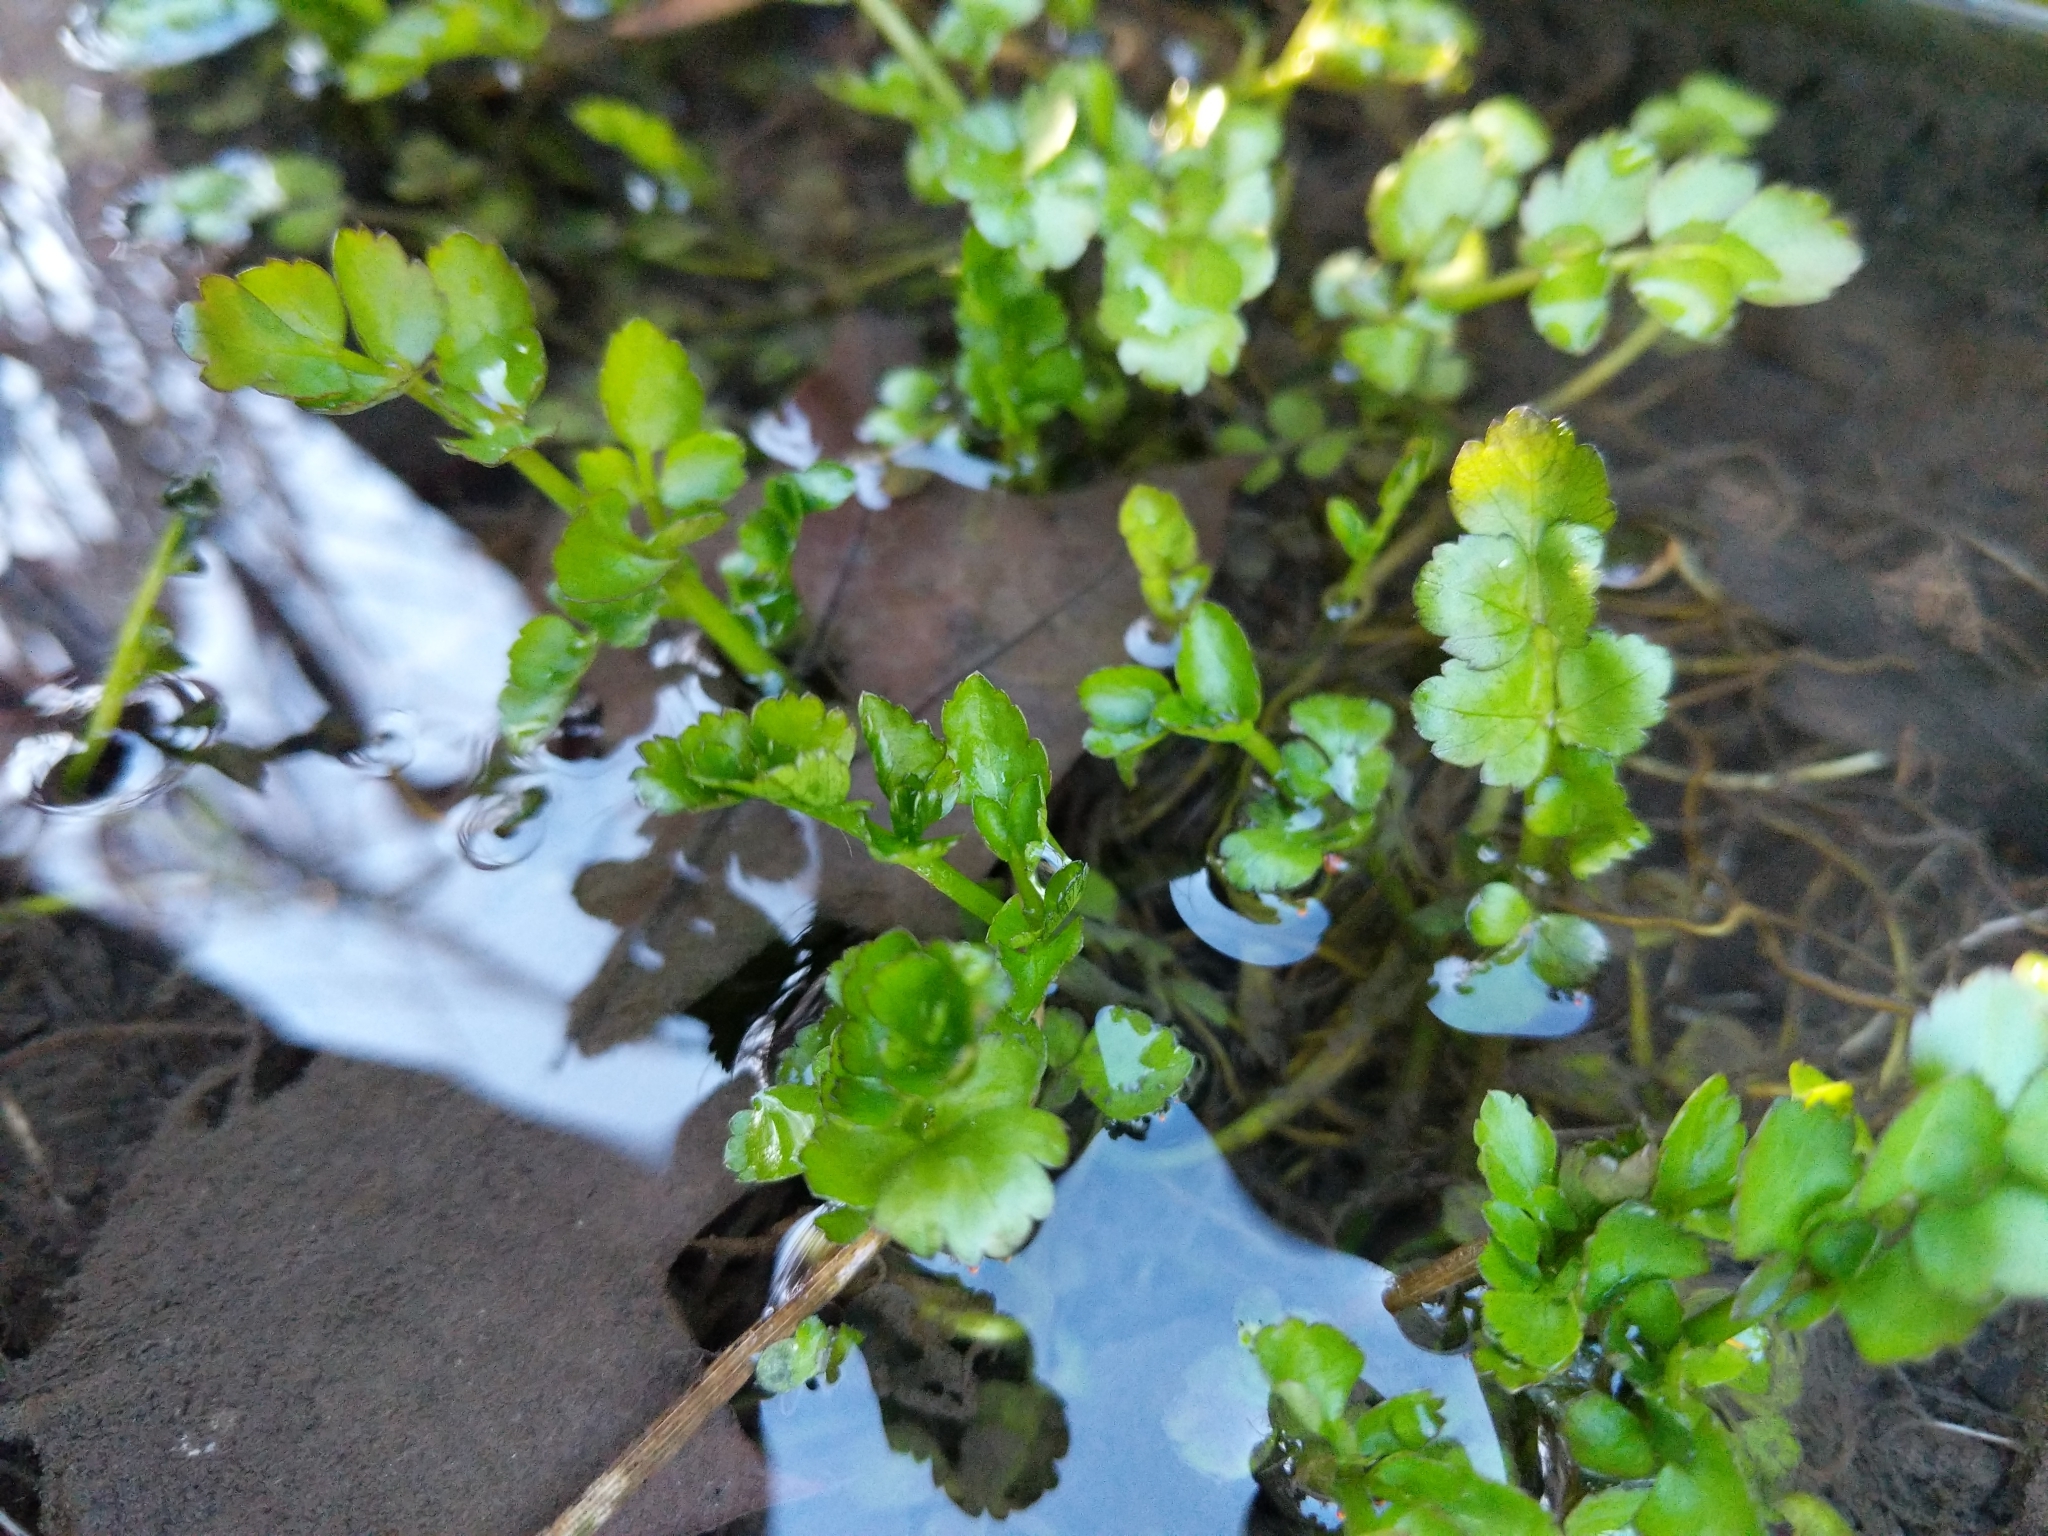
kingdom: Plantae
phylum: Tracheophyta
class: Magnoliopsida
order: Apiales
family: Apiaceae
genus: Oenanthe
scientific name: Oenanthe javanica
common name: Java water-dropwort
